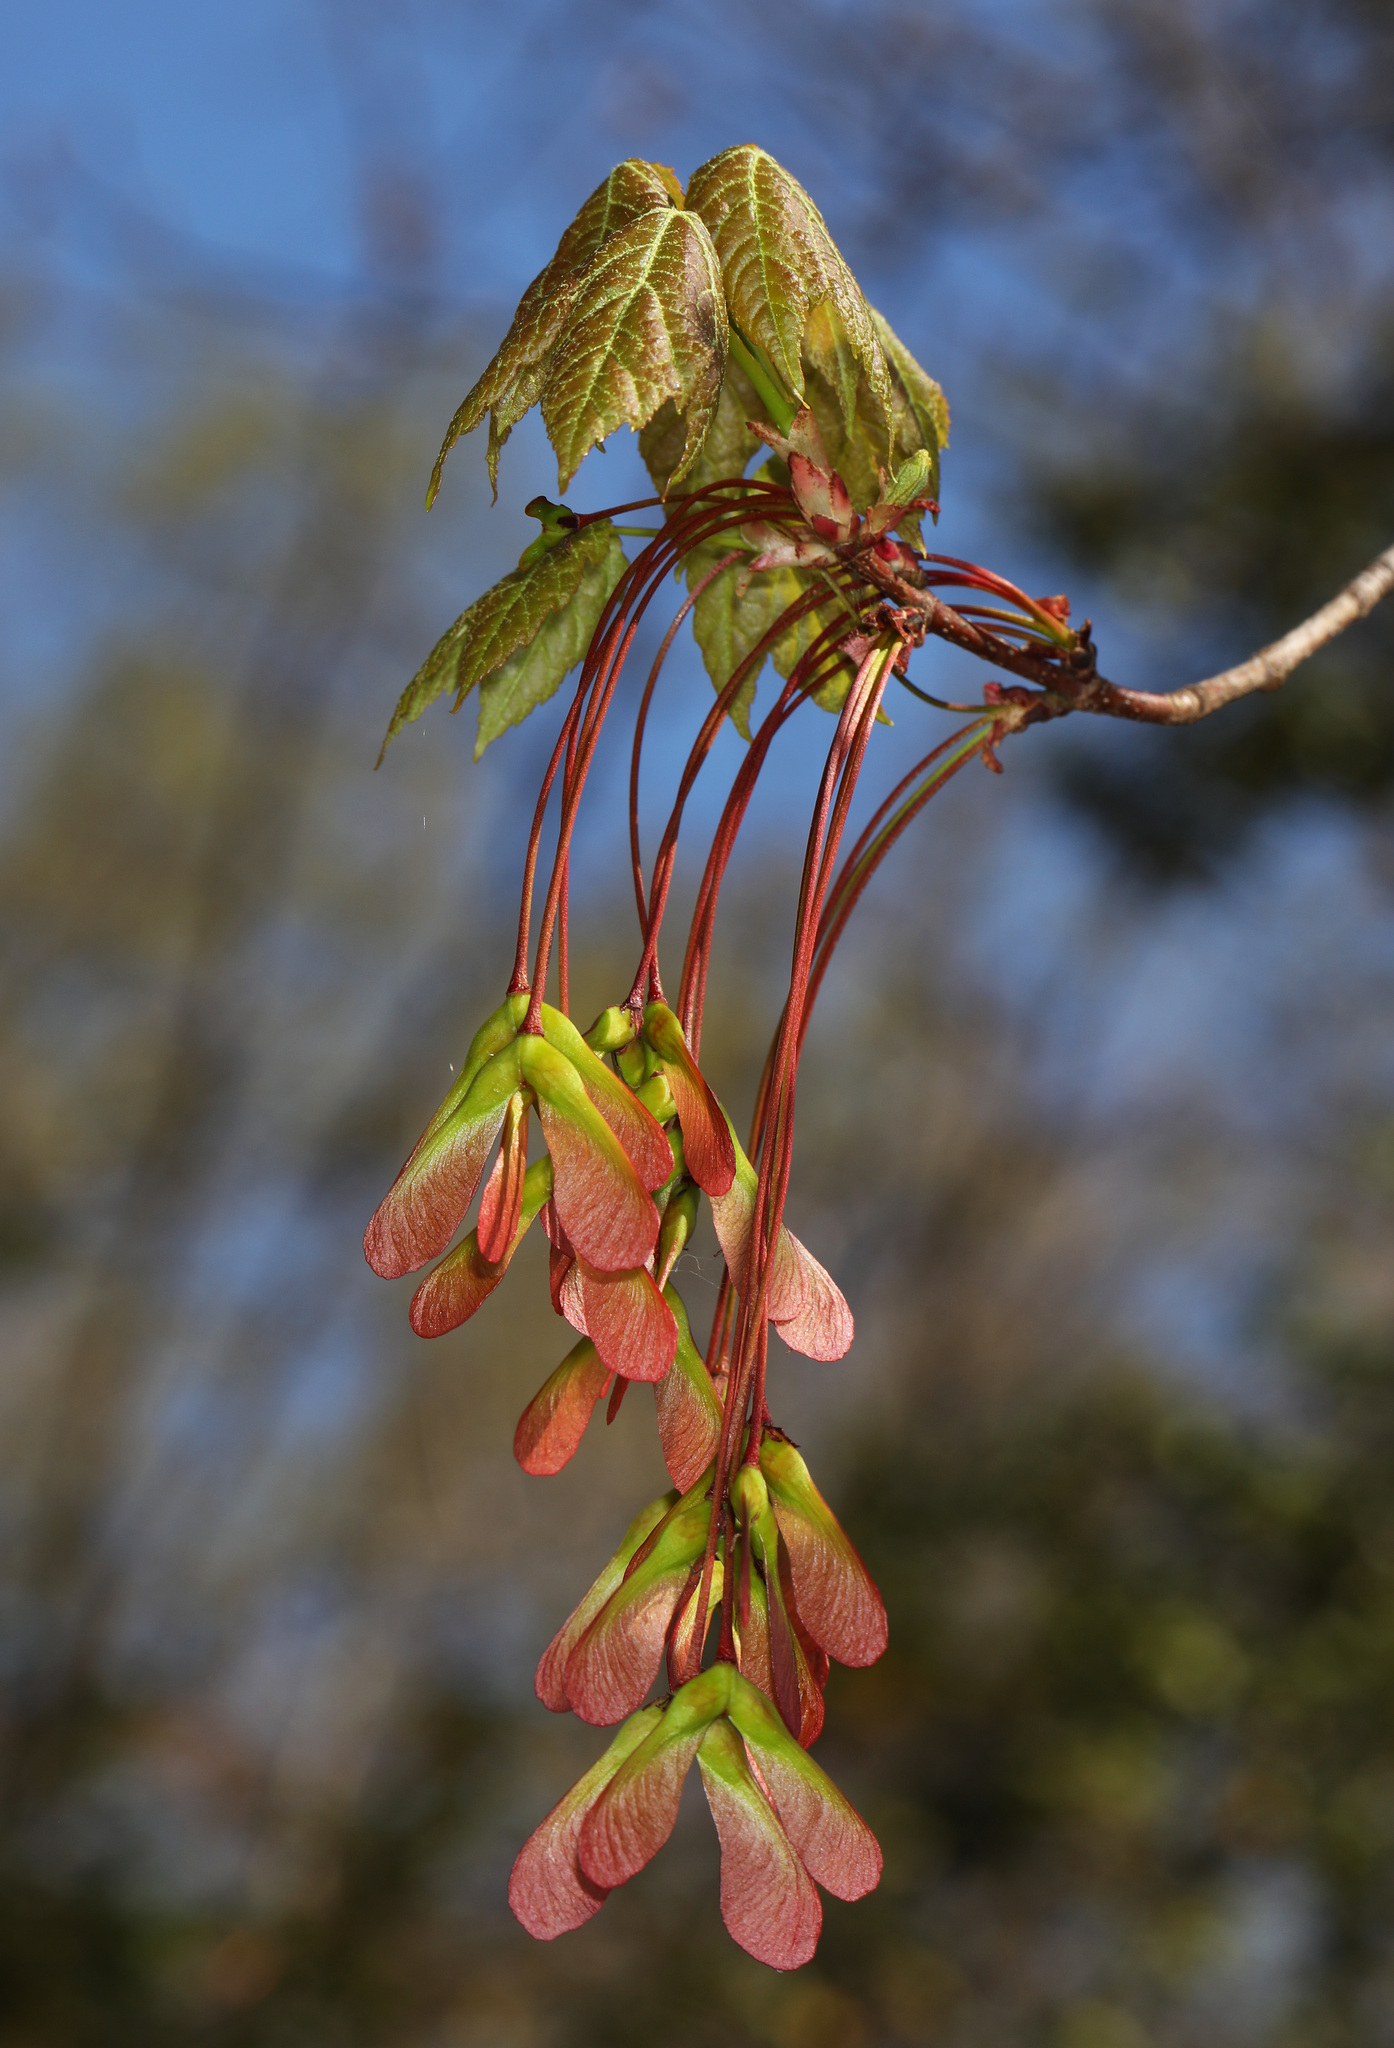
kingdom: Plantae
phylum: Tracheophyta
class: Magnoliopsida
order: Sapindales
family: Sapindaceae
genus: Acer
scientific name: Acer rubrum
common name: Red maple
